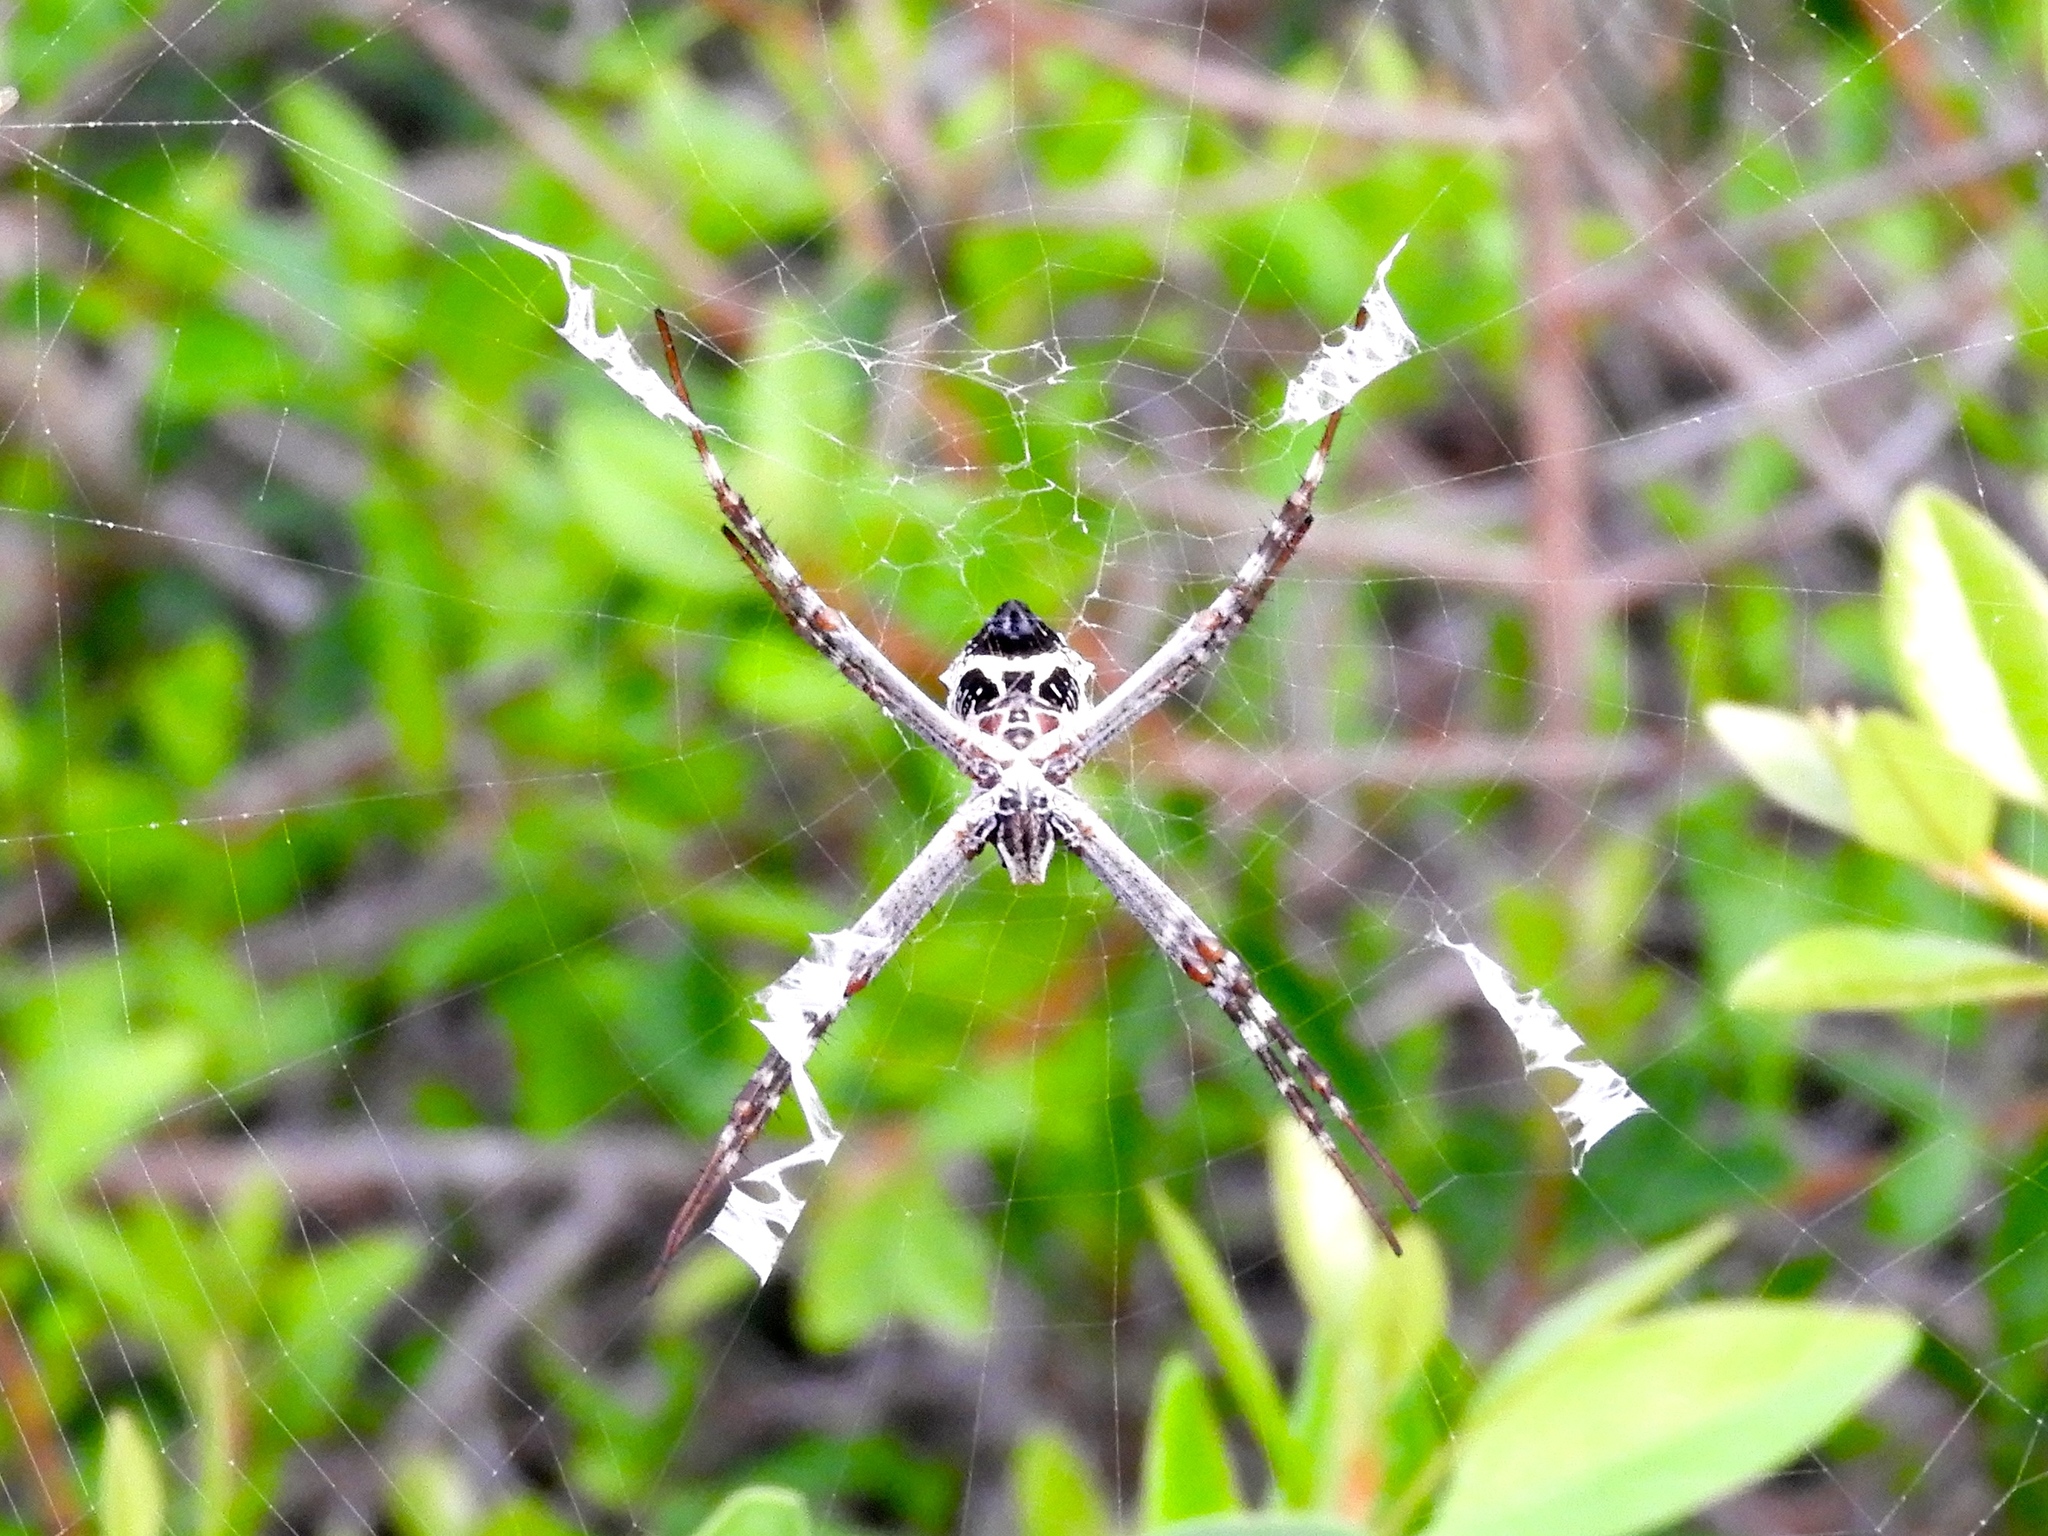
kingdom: Animalia
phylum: Arthropoda
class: Arachnida
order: Araneae
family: Araneidae
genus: Argiope
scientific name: Argiope argentata
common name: Orb weavers
